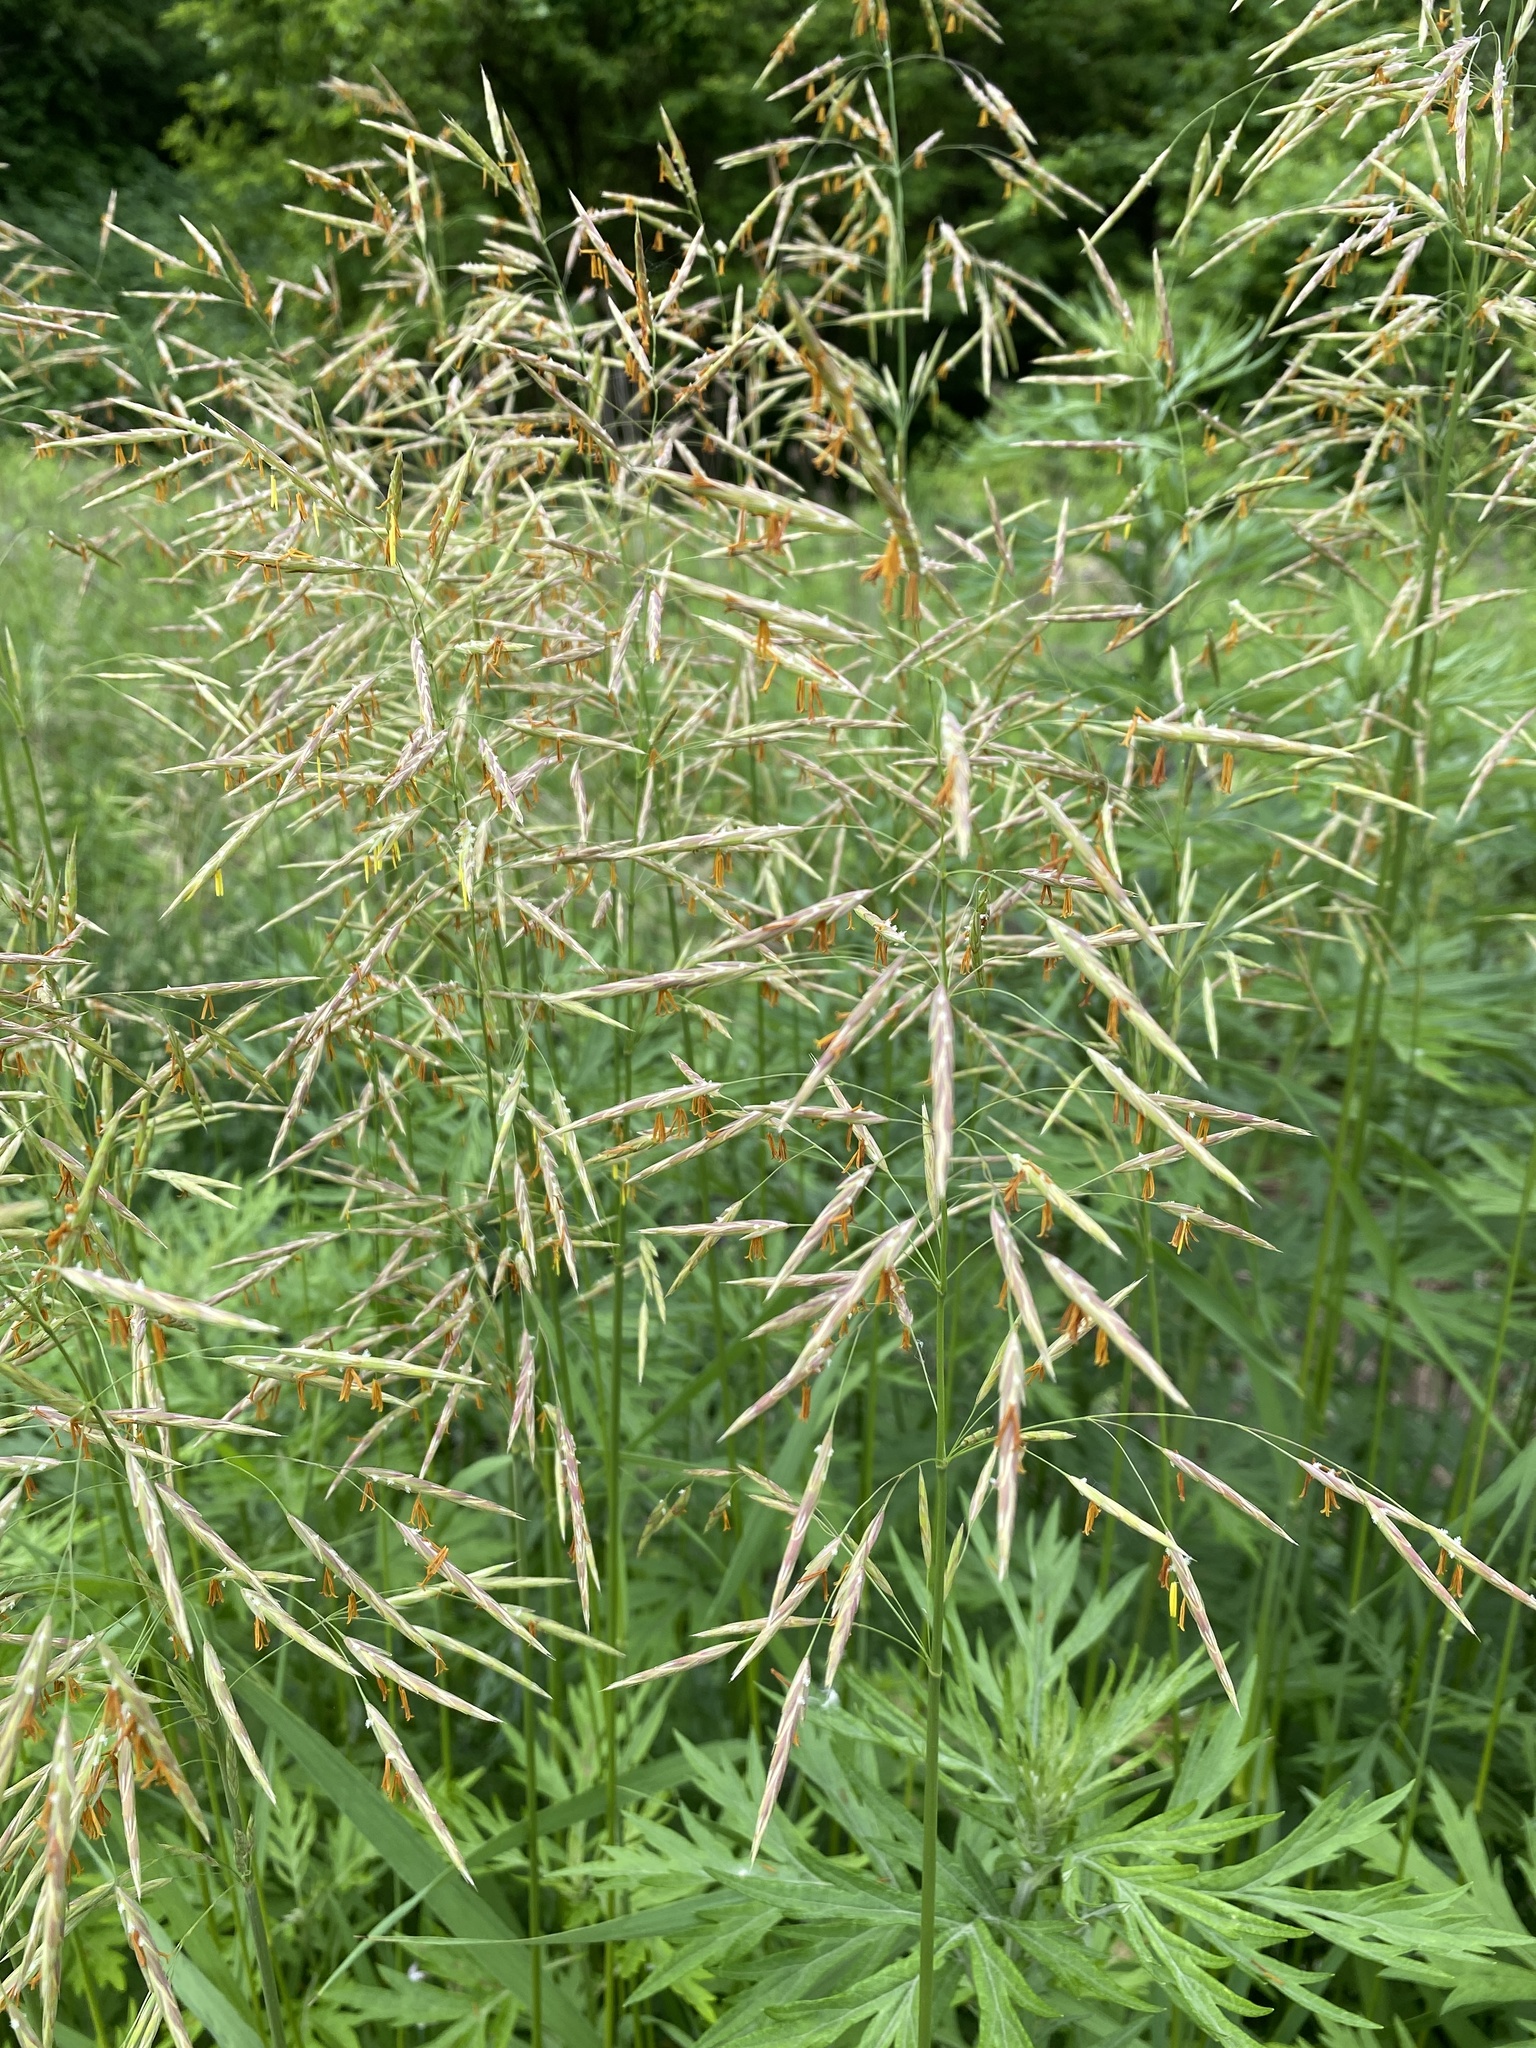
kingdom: Plantae
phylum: Tracheophyta
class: Liliopsida
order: Poales
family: Poaceae
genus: Bromus
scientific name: Bromus inermis
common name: Smooth brome
